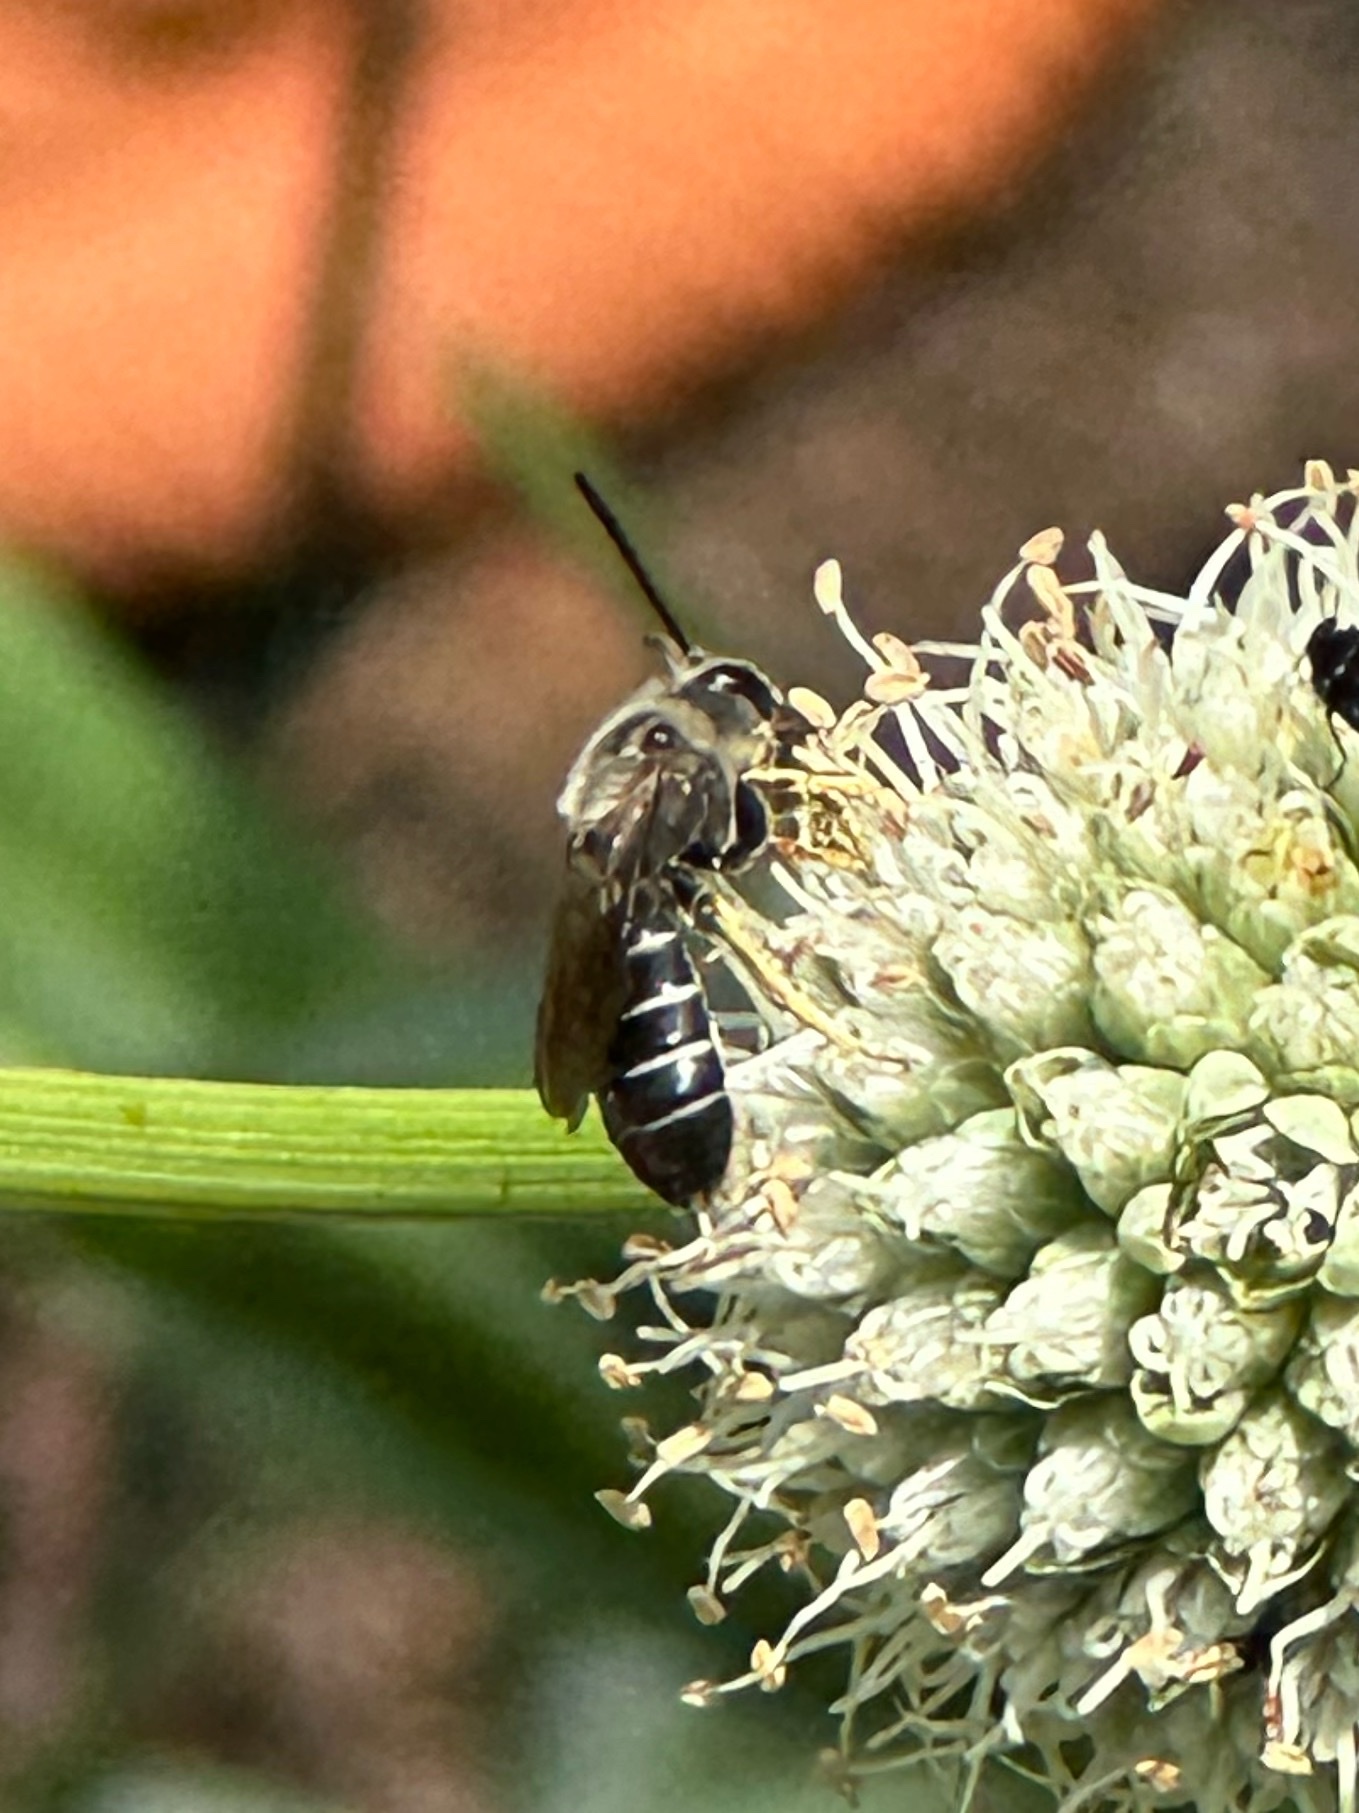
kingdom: Animalia
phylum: Arthropoda
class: Insecta
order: Hymenoptera
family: Halictidae
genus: Halictus
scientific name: Halictus rubicundus
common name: Orange-legged furrow bee
